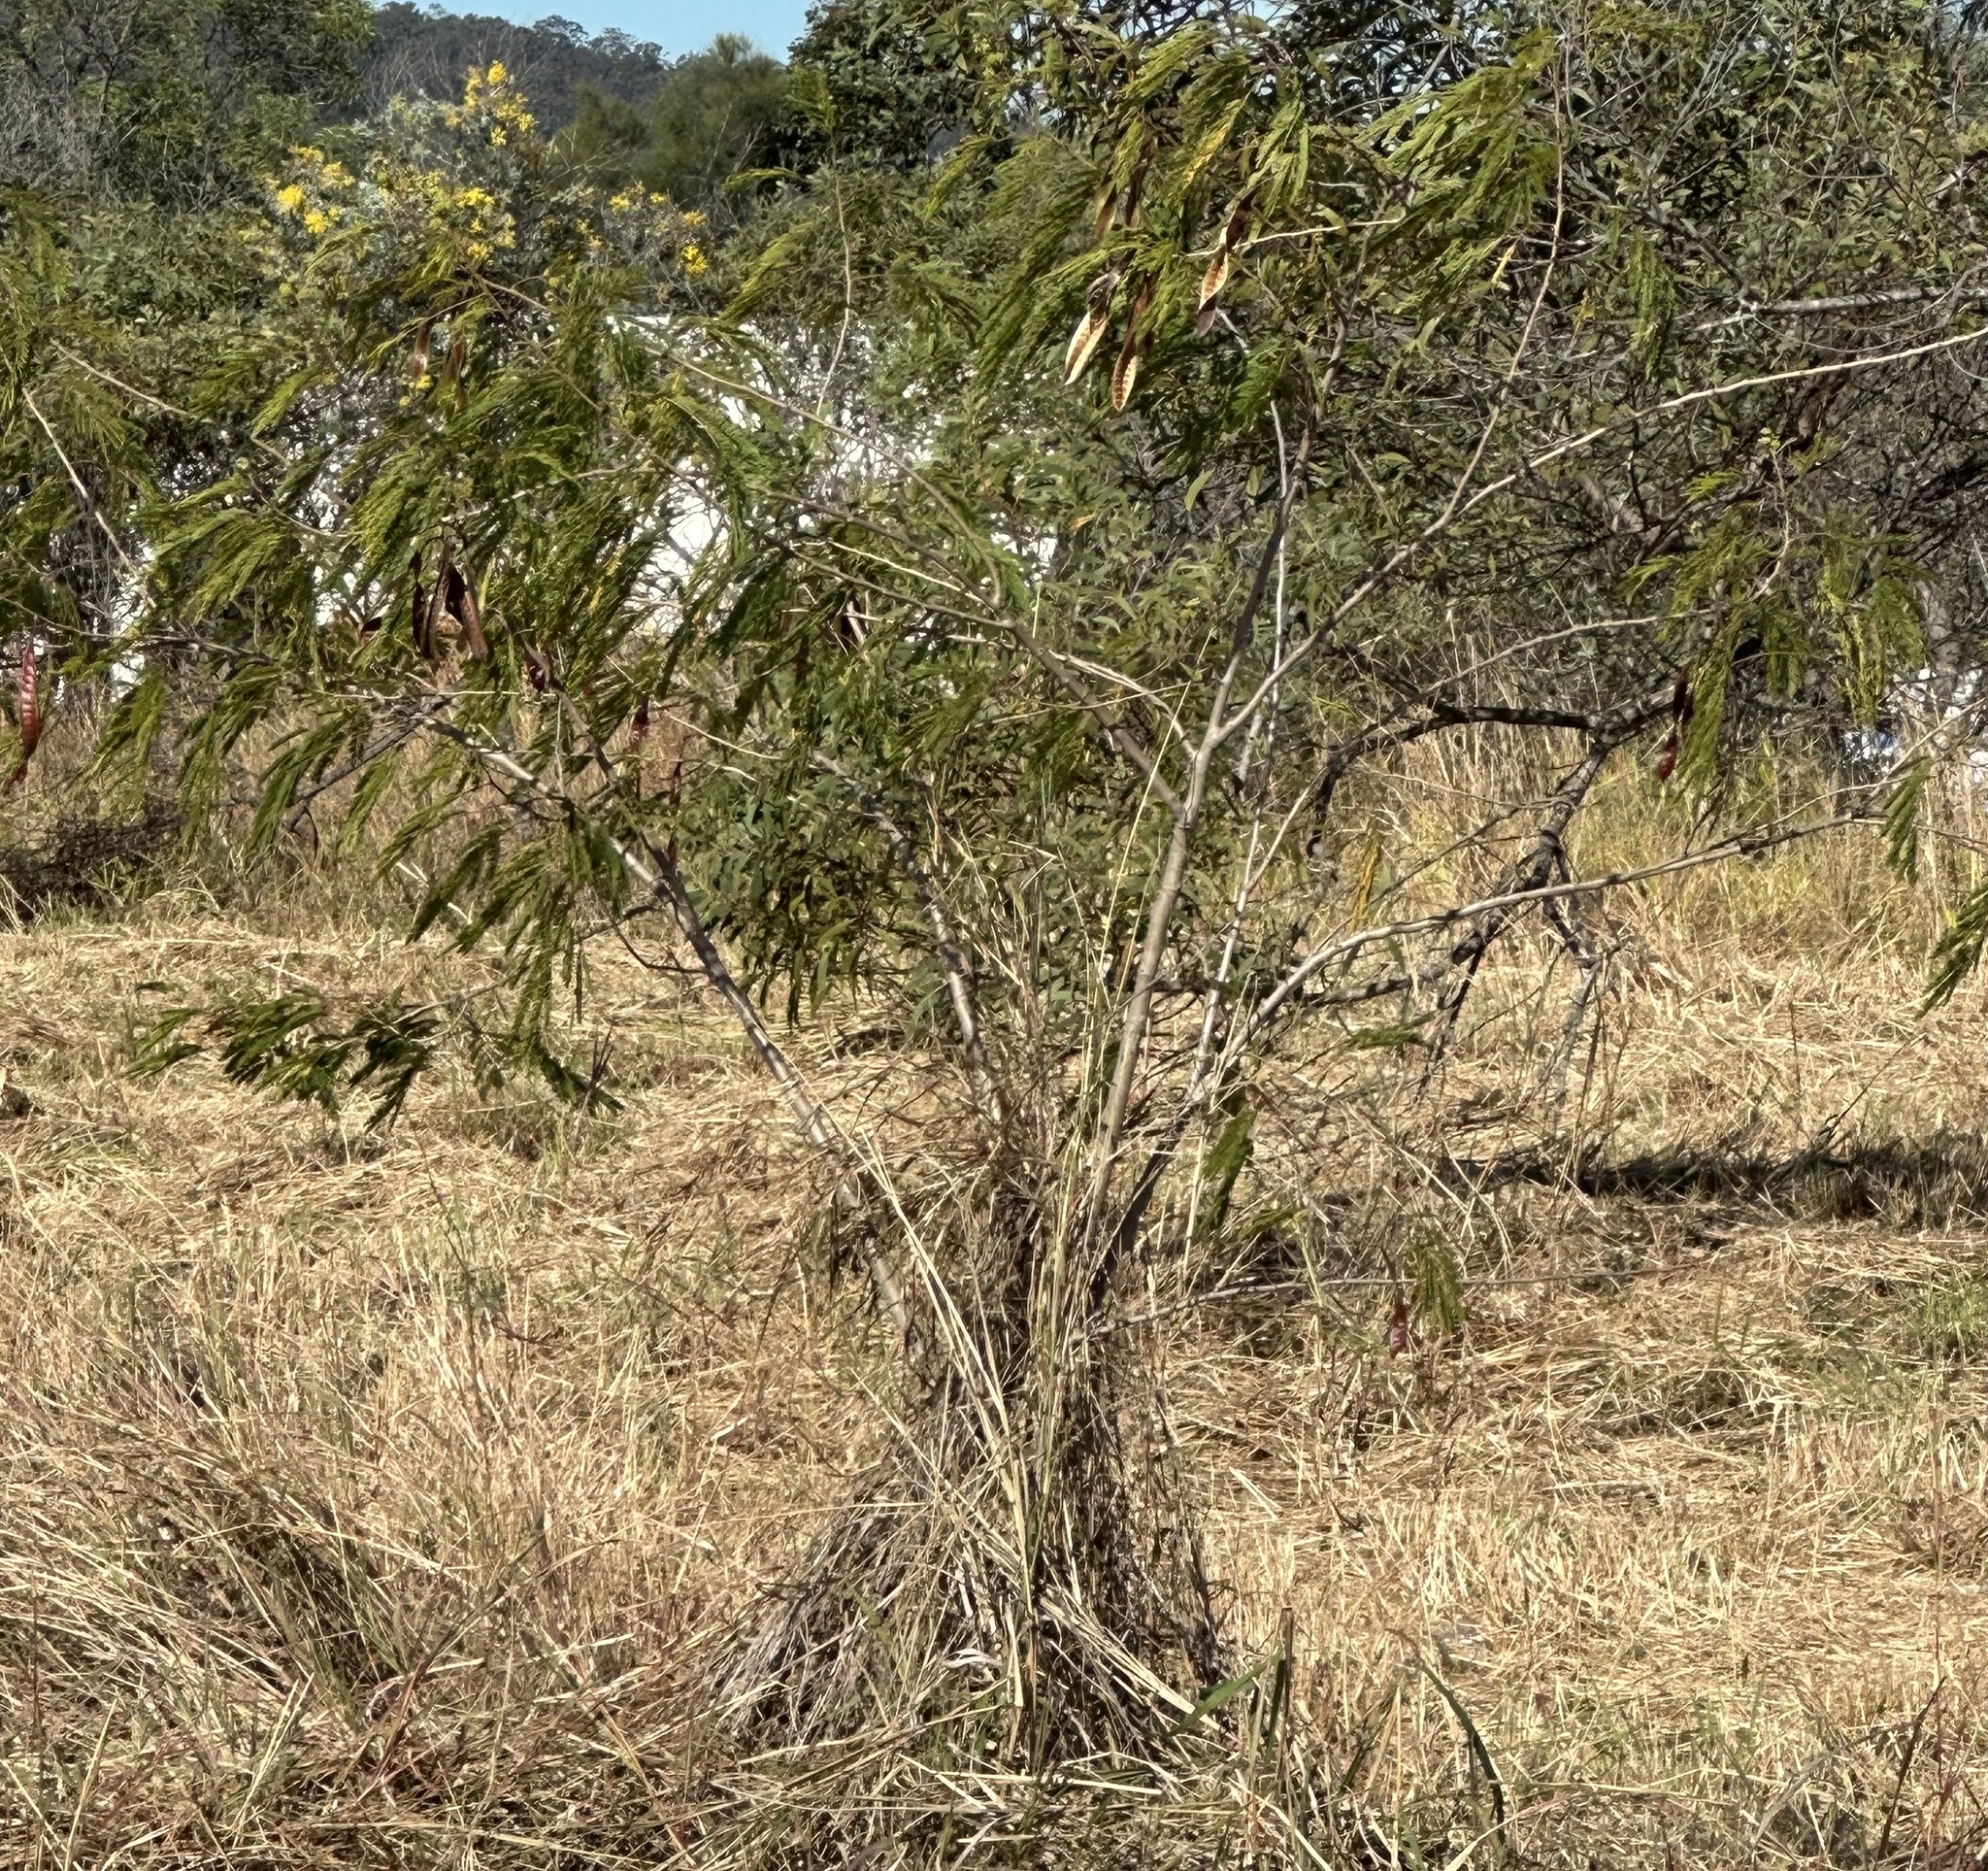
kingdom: Plantae
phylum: Tracheophyta
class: Magnoliopsida
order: Fabales
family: Fabaceae
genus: Leucaena
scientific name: Leucaena leucocephala
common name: White leadtree
